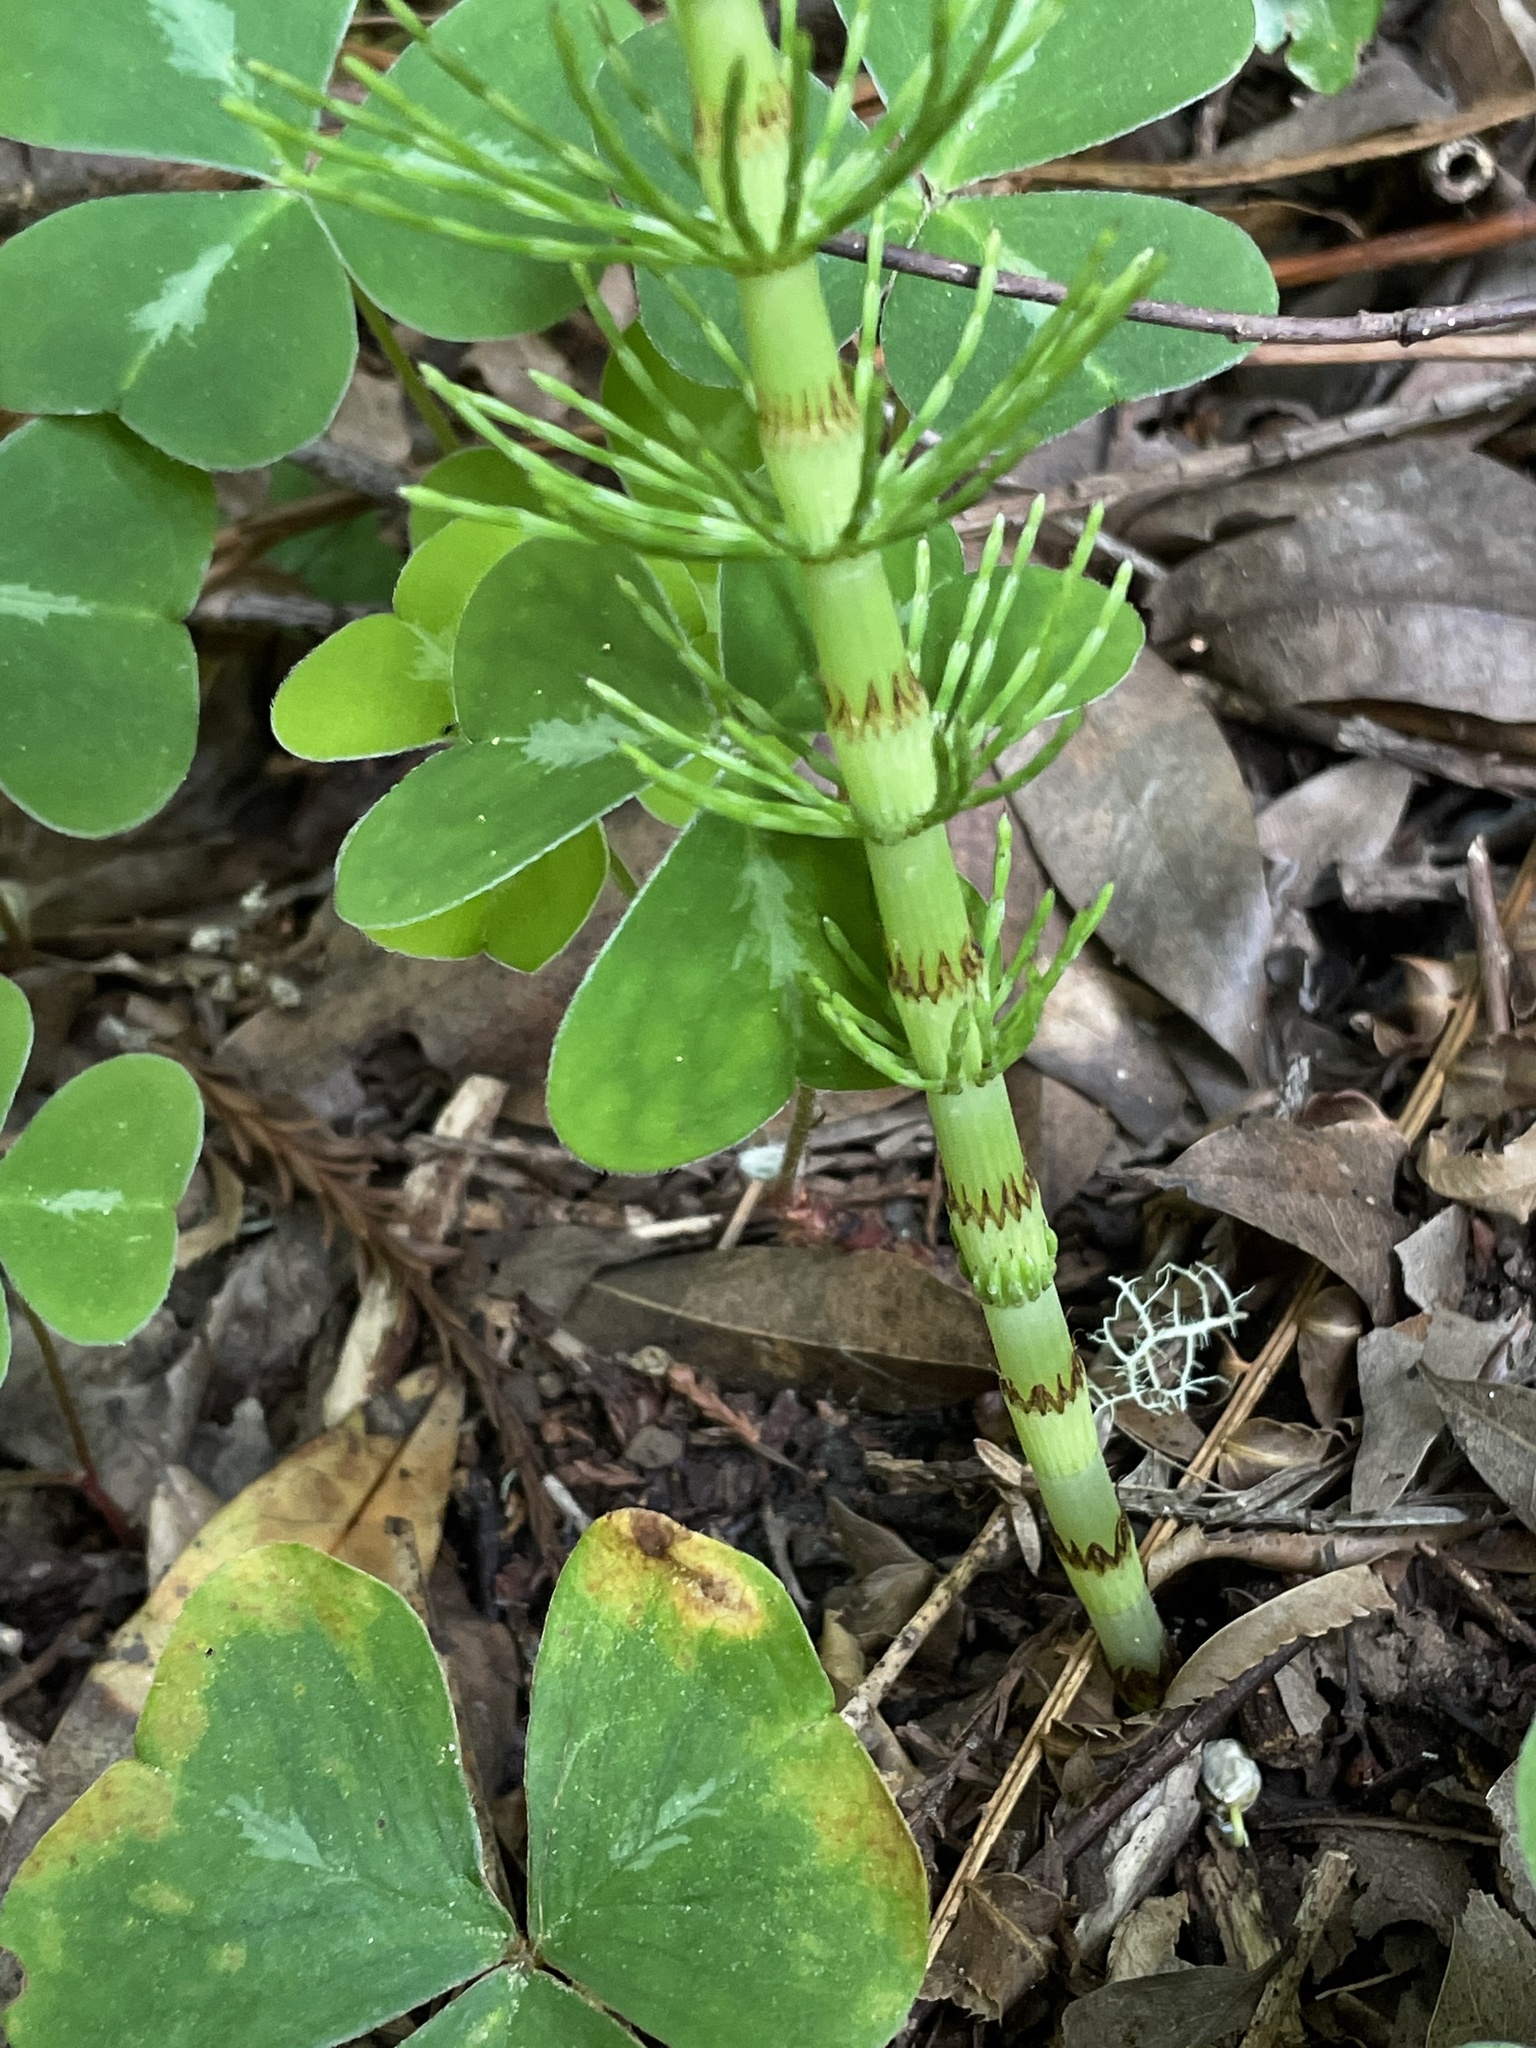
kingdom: Plantae
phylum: Tracheophyta
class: Polypodiopsida
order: Equisetales
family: Equisetaceae
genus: Equisetum
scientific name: Equisetum telmateia
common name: Great horsetail
